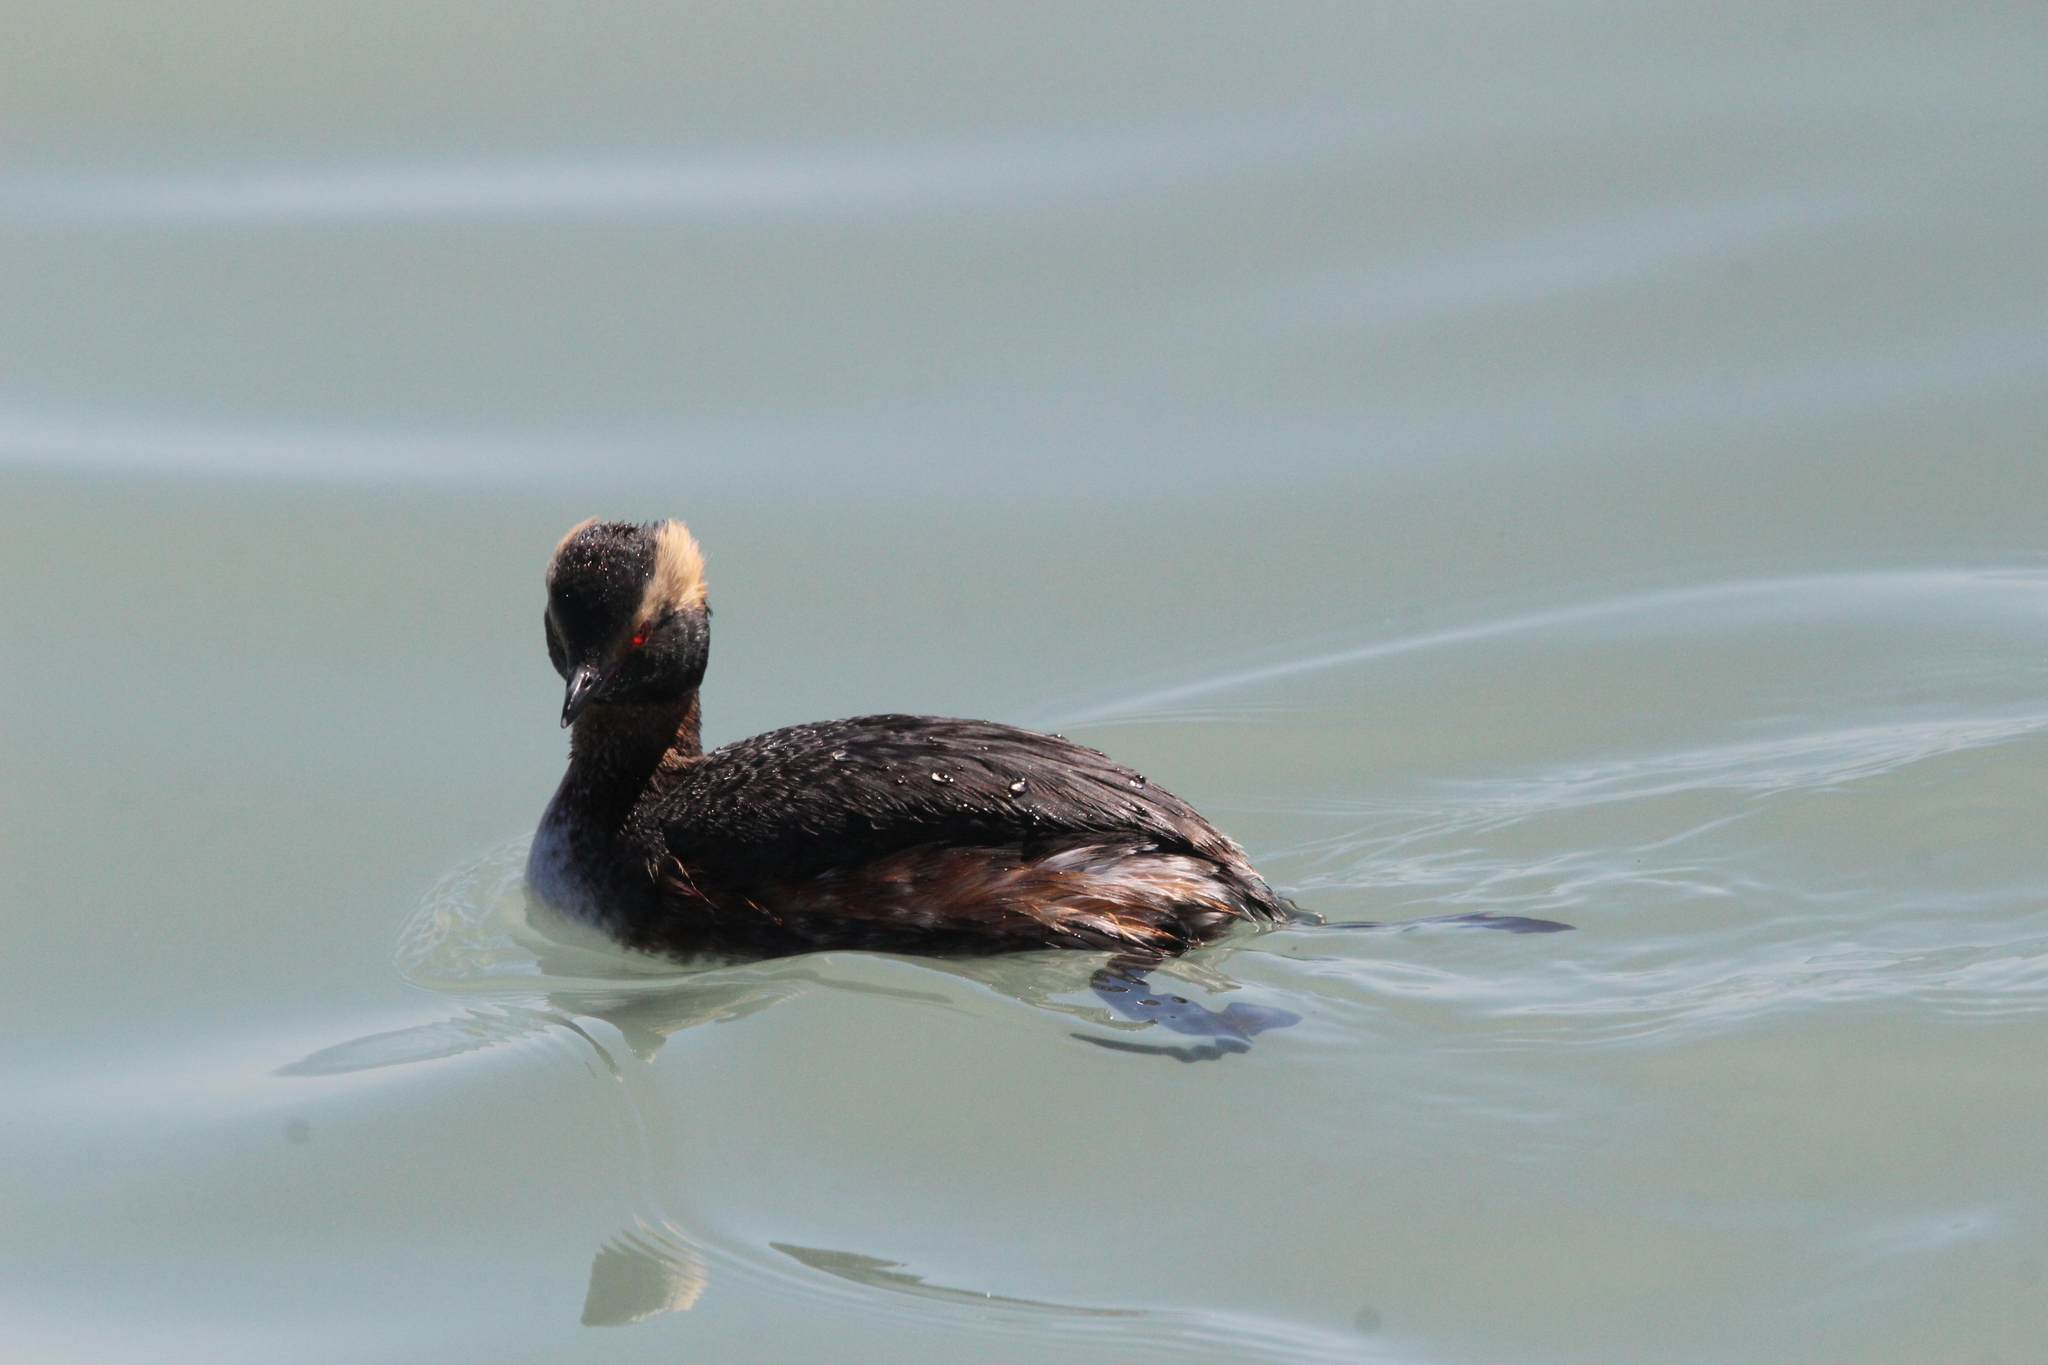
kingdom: Animalia
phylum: Chordata
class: Aves
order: Podicipediformes
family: Podicipedidae
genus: Podiceps
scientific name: Podiceps auritus
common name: Horned grebe
